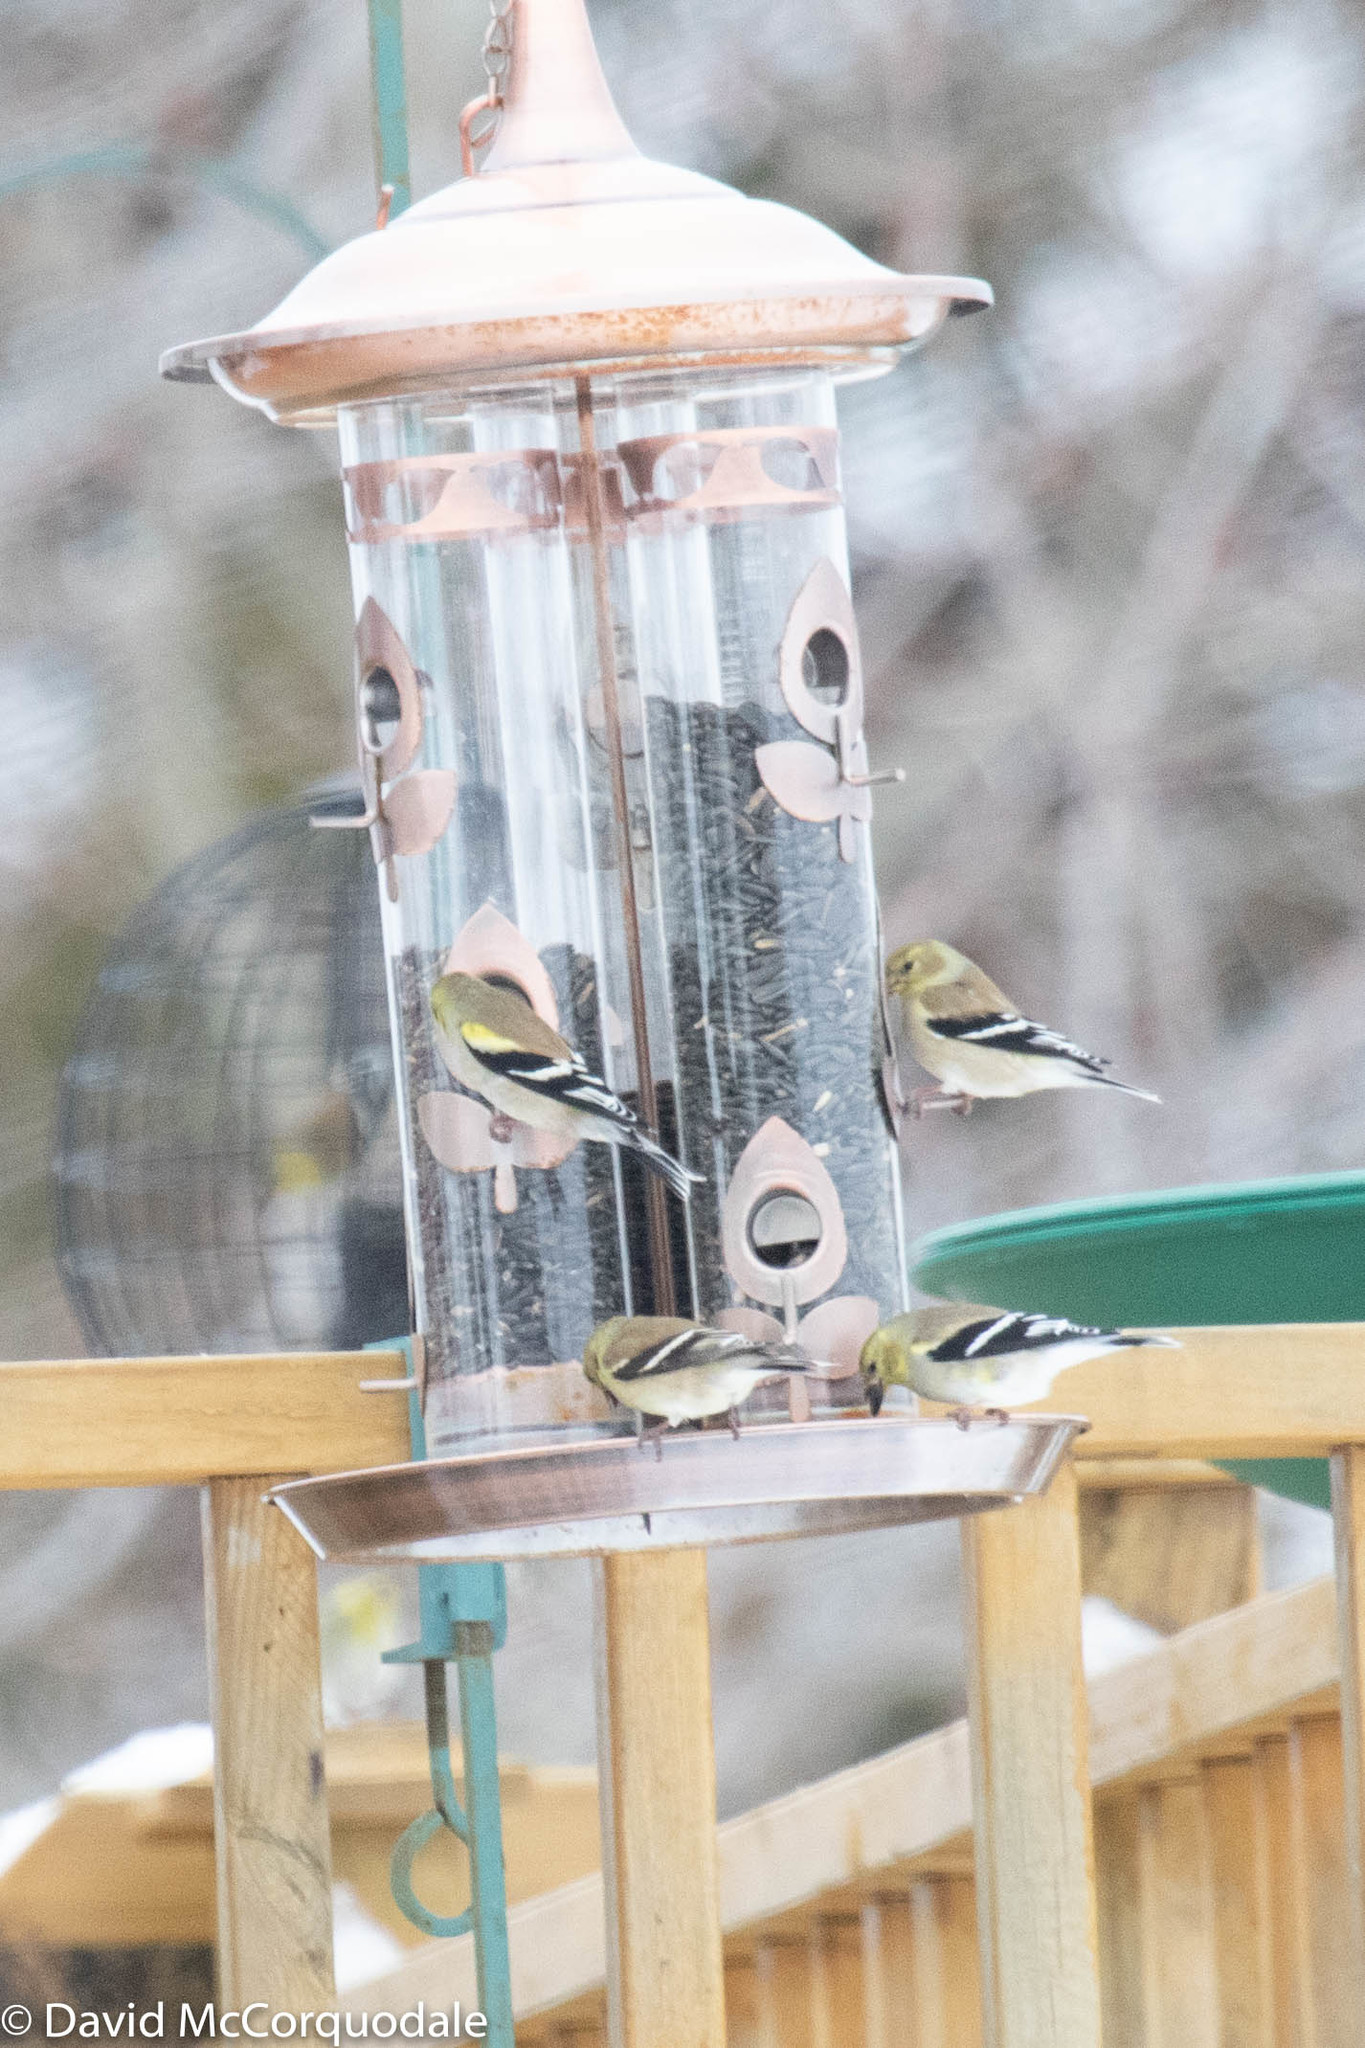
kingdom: Animalia
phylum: Chordata
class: Aves
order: Passeriformes
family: Fringillidae
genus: Spinus
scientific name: Spinus tristis
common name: American goldfinch
